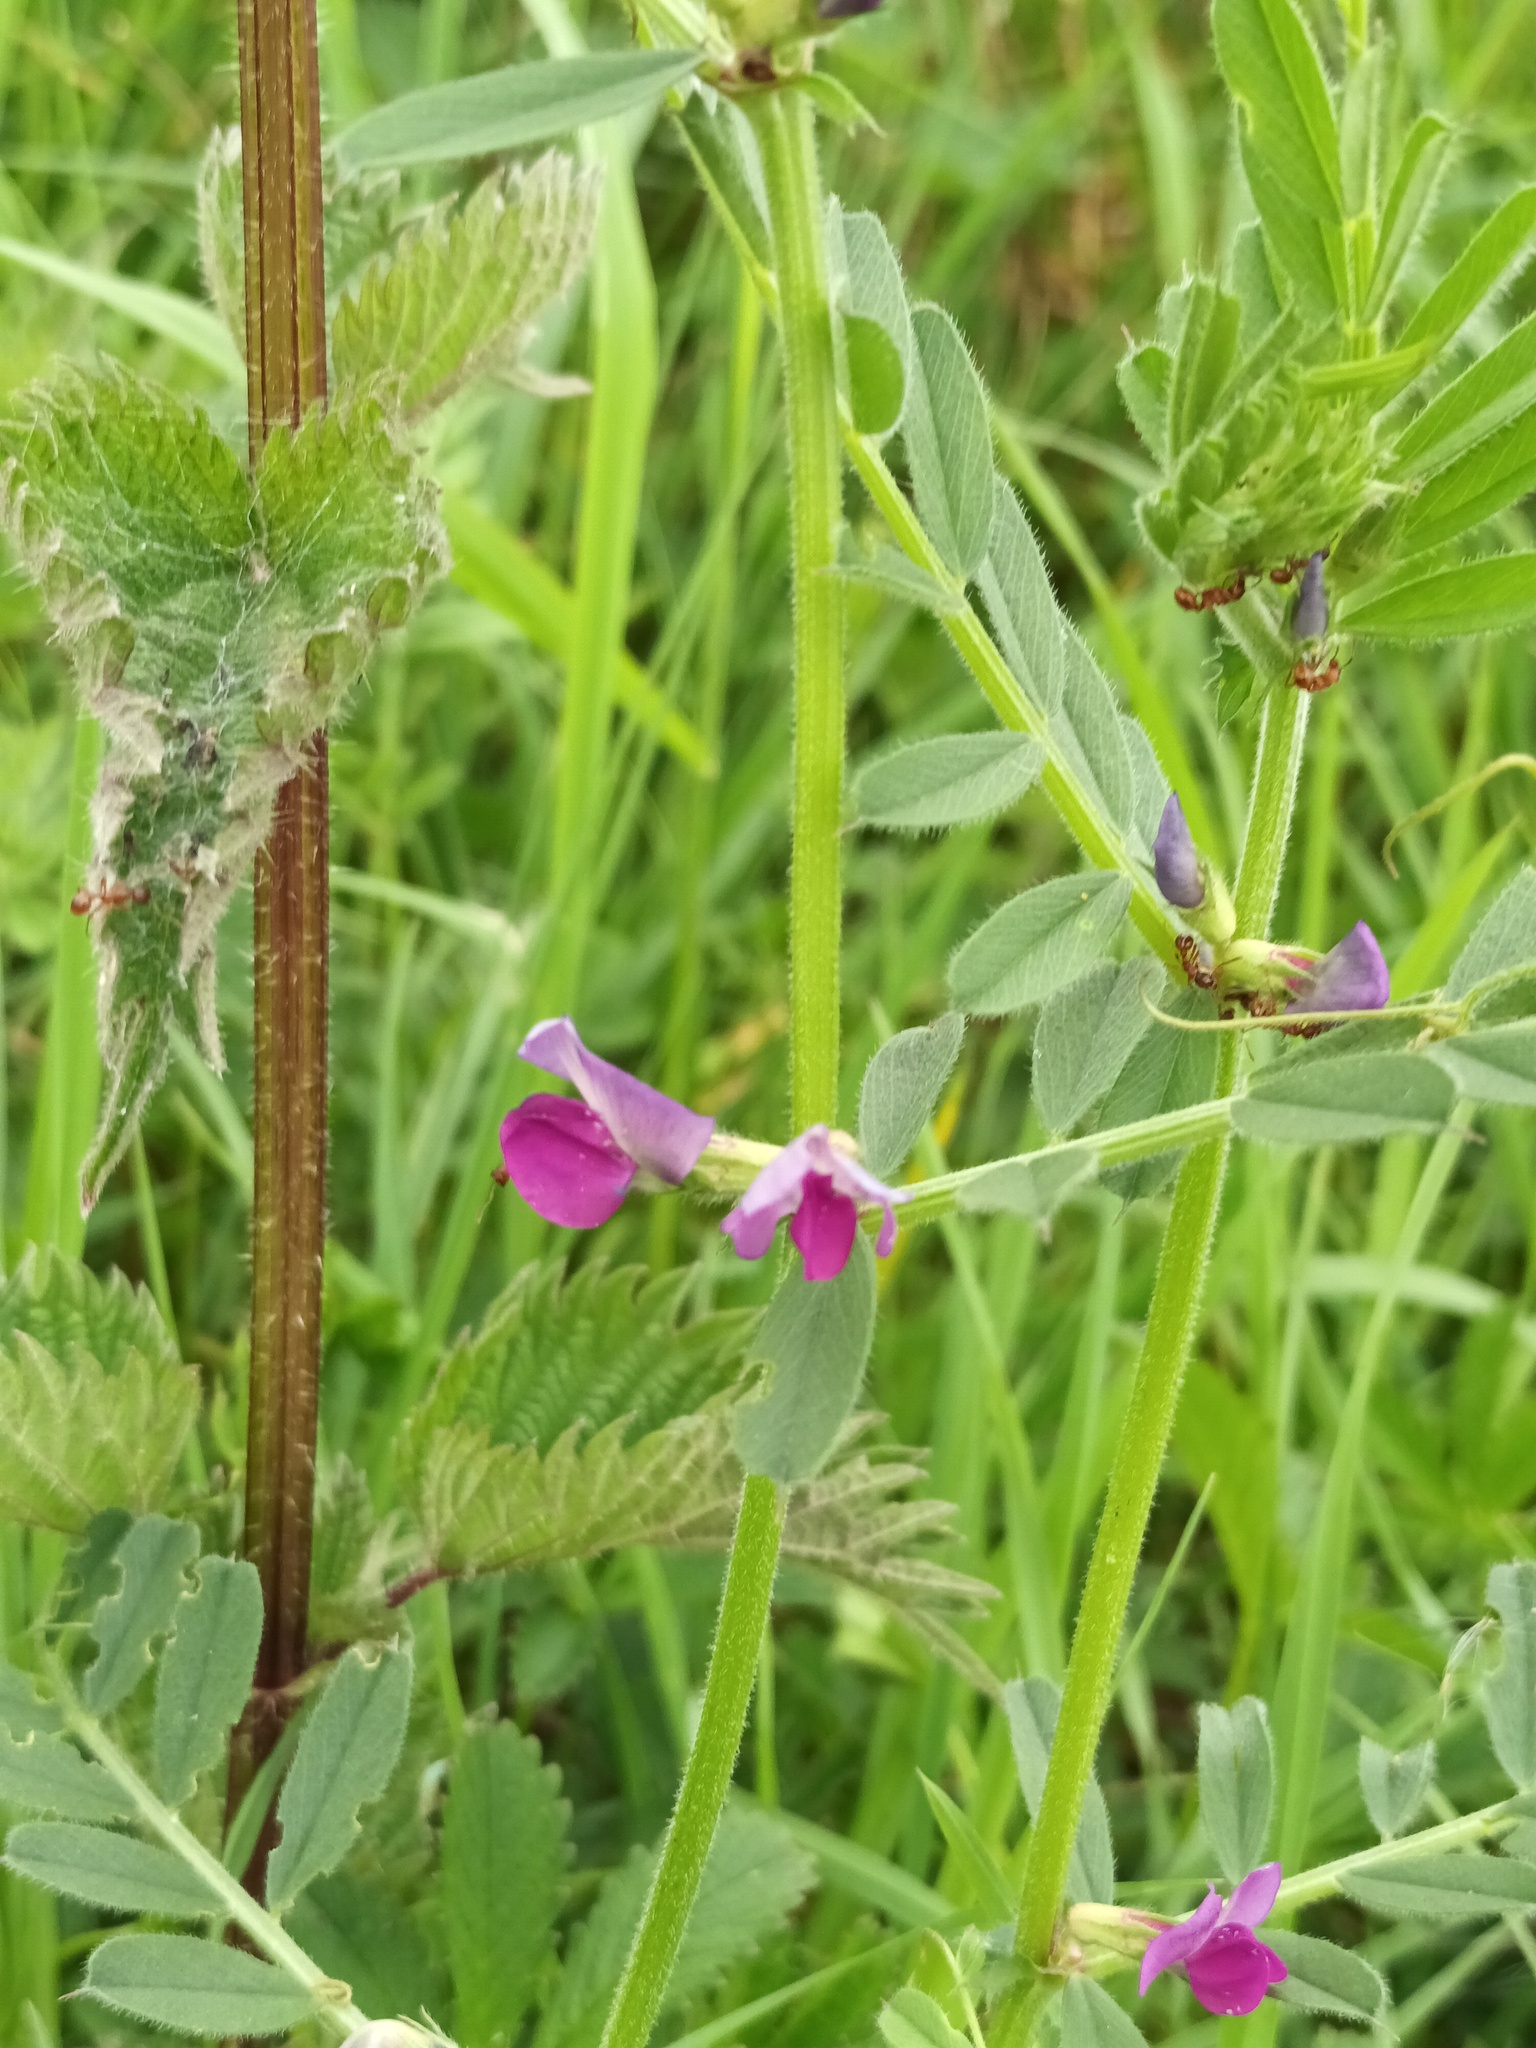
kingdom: Plantae
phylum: Tracheophyta
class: Magnoliopsida
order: Fabales
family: Fabaceae
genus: Vicia
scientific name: Vicia sativa
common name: Garden vetch
